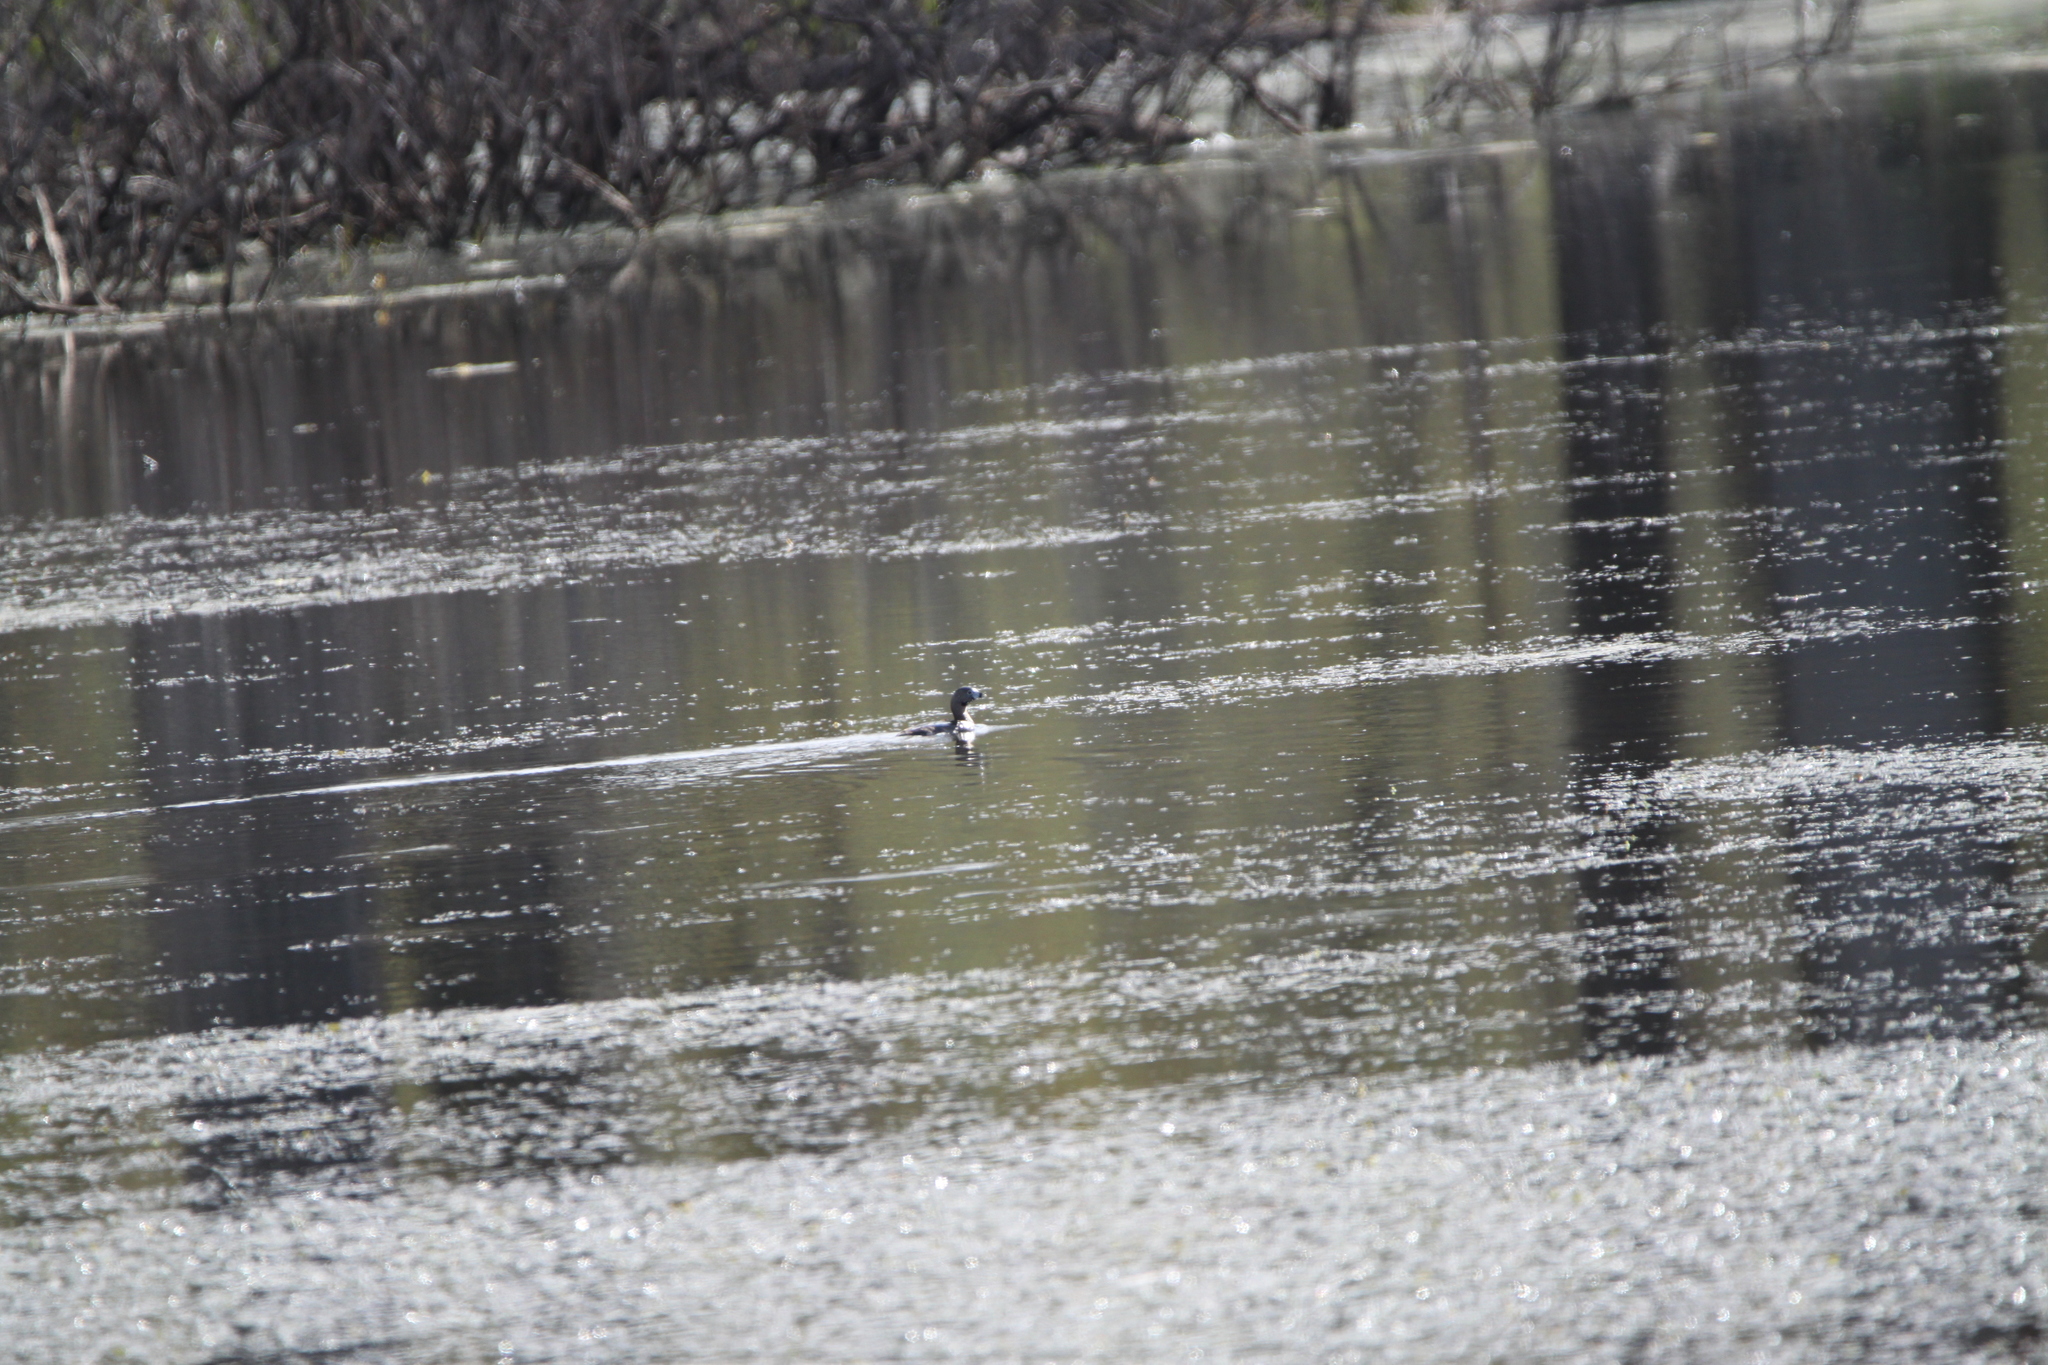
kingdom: Animalia
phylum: Chordata
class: Aves
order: Podicipediformes
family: Podicipedidae
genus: Podilymbus
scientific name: Podilymbus podiceps
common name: Pied-billed grebe
